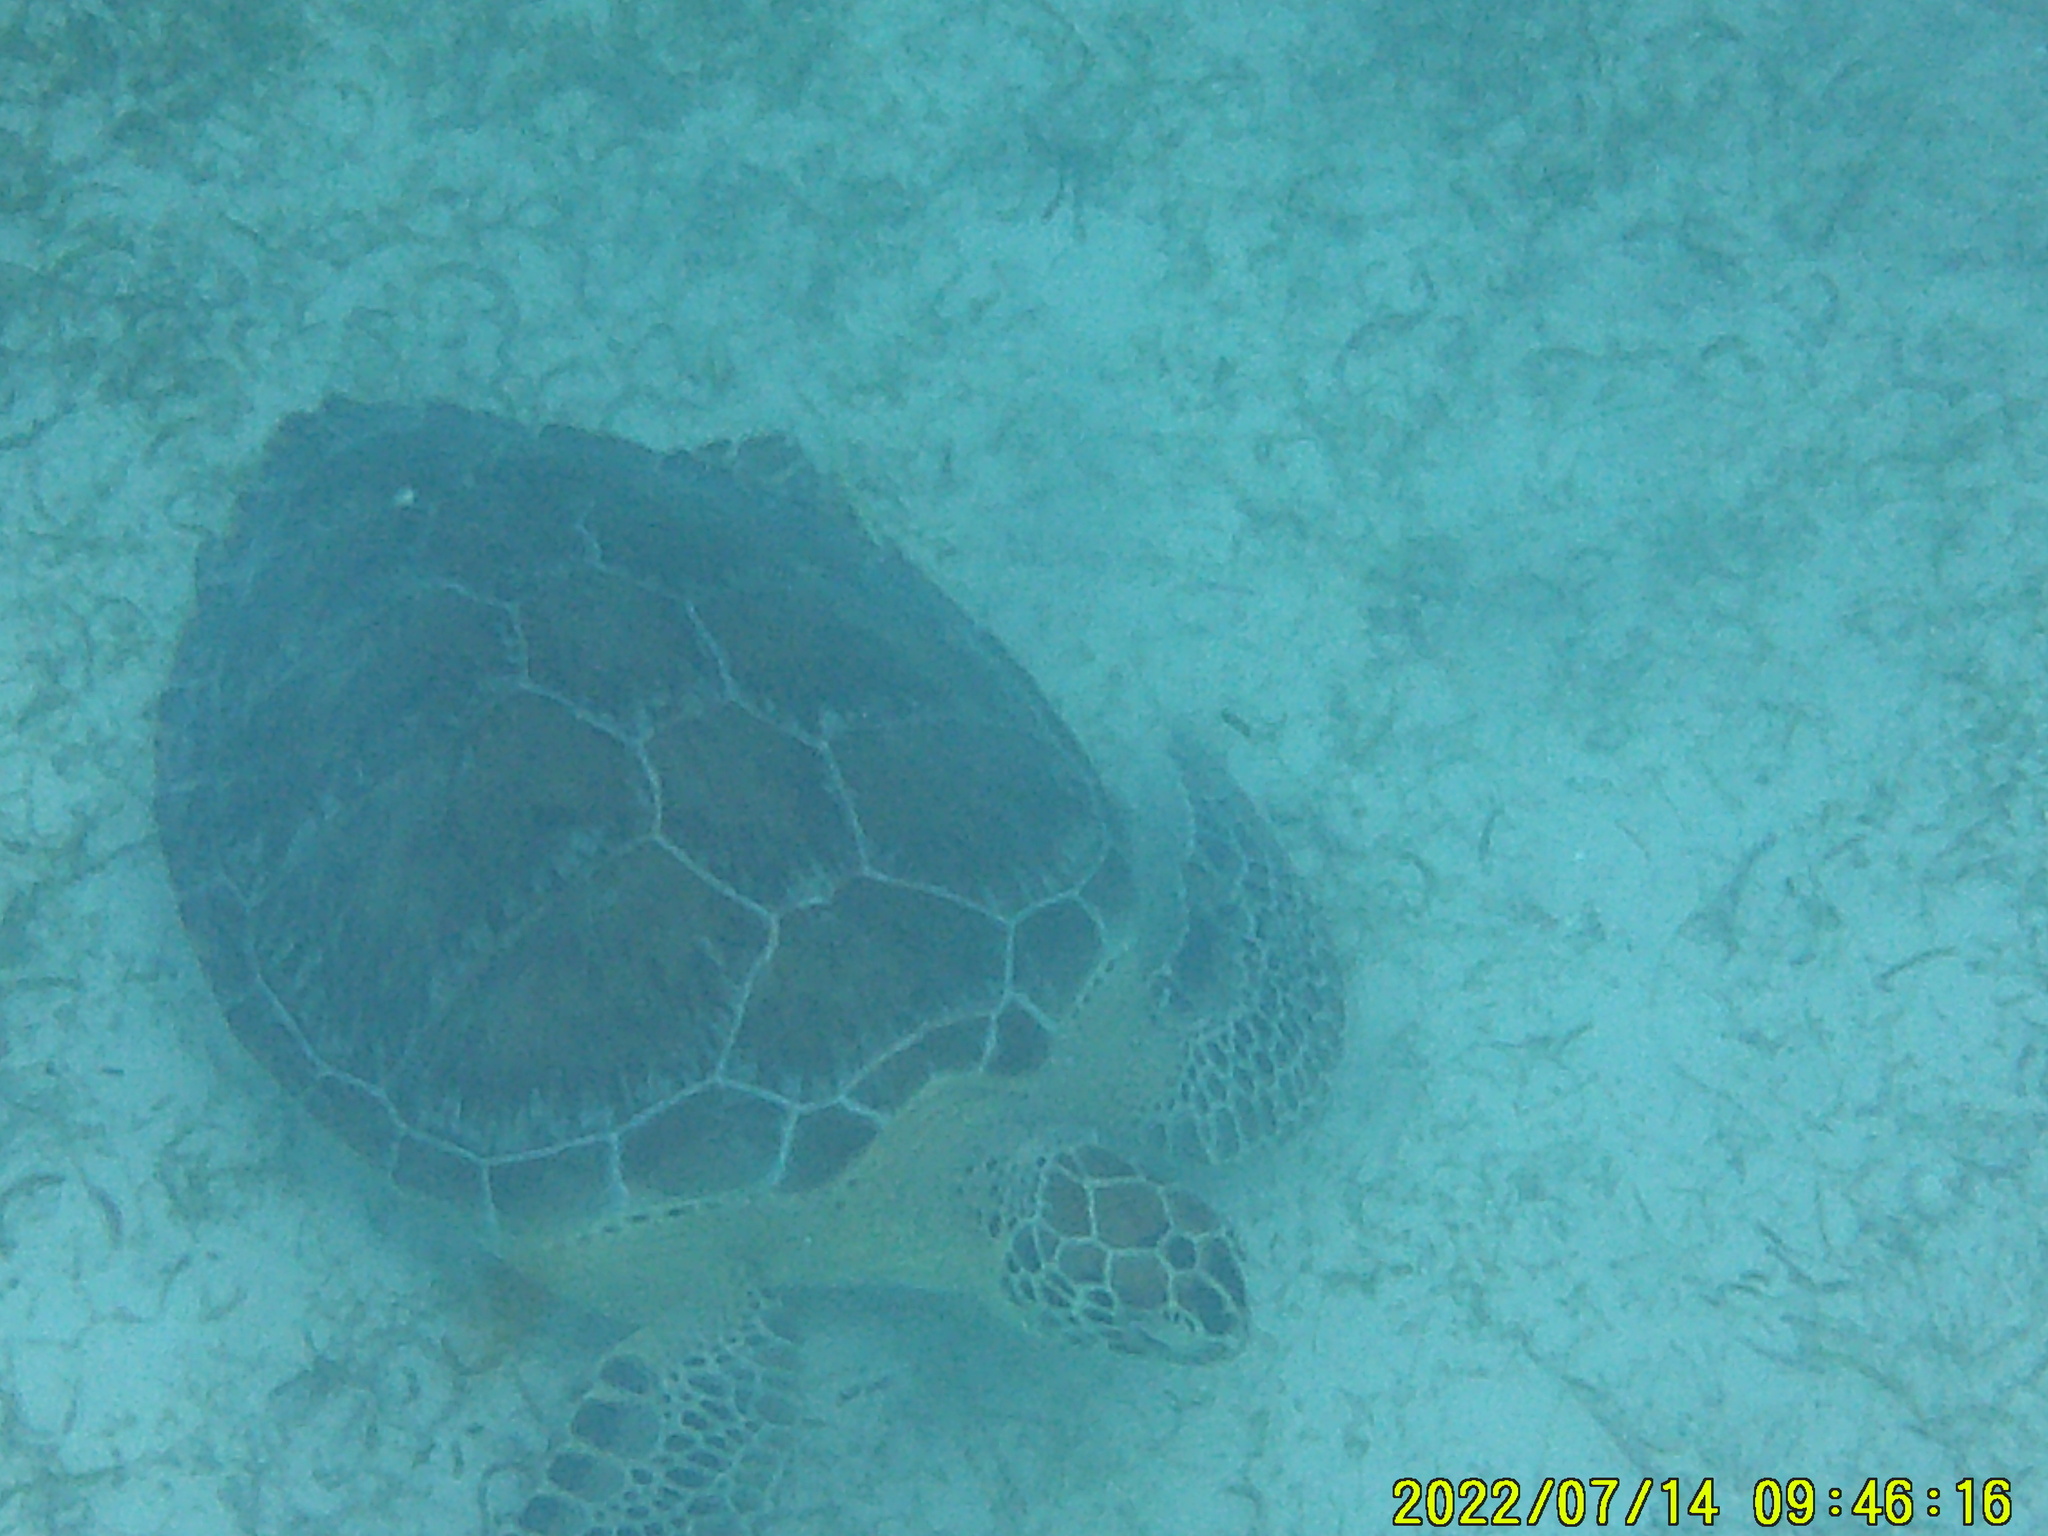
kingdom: Animalia
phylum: Chordata
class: Testudines
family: Cheloniidae
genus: Chelonia
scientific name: Chelonia mydas
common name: Green turtle
